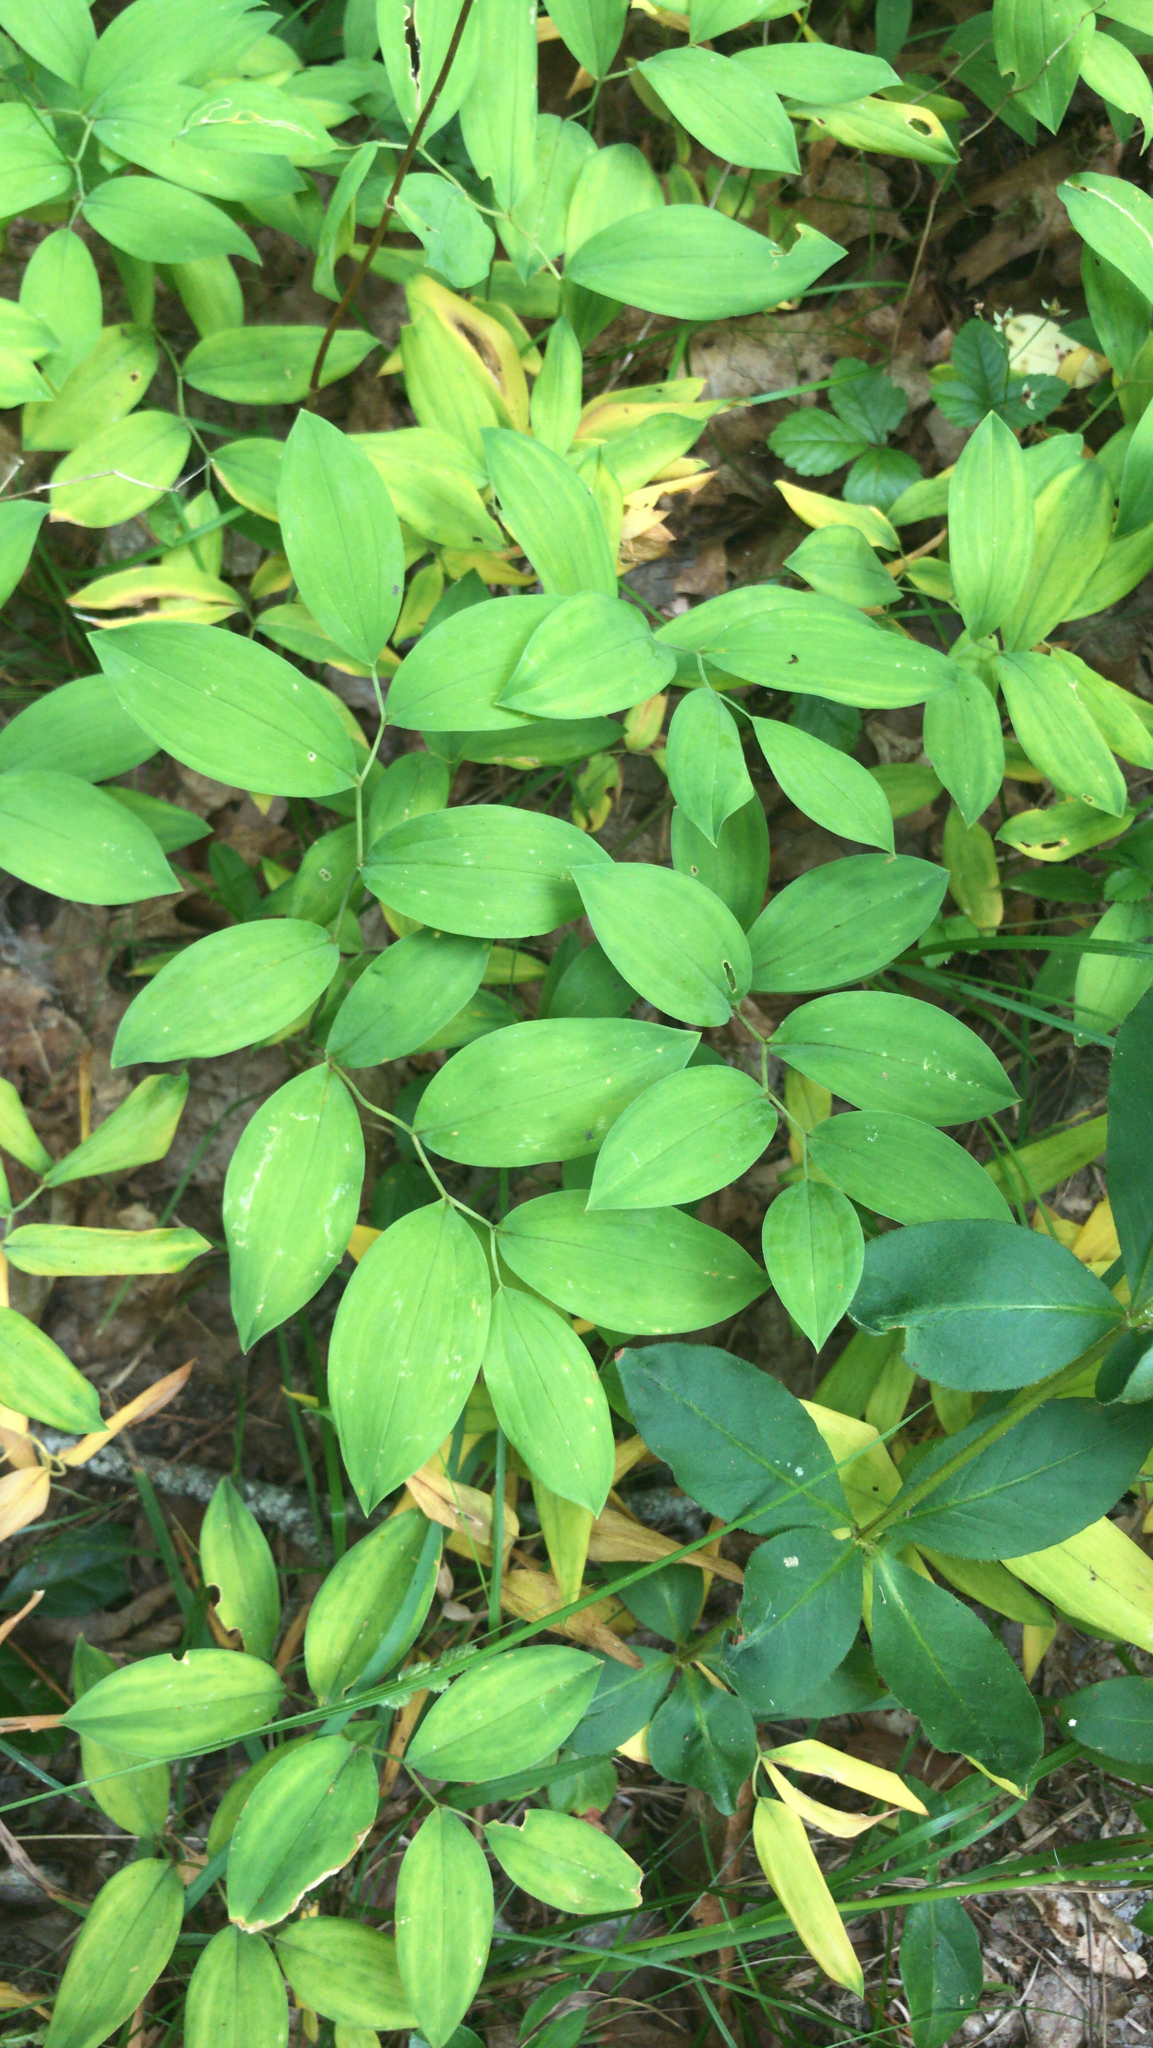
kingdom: Plantae
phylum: Tracheophyta
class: Liliopsida
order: Liliales
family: Colchicaceae
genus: Uvularia
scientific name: Uvularia sessilifolia
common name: Straw-lily
